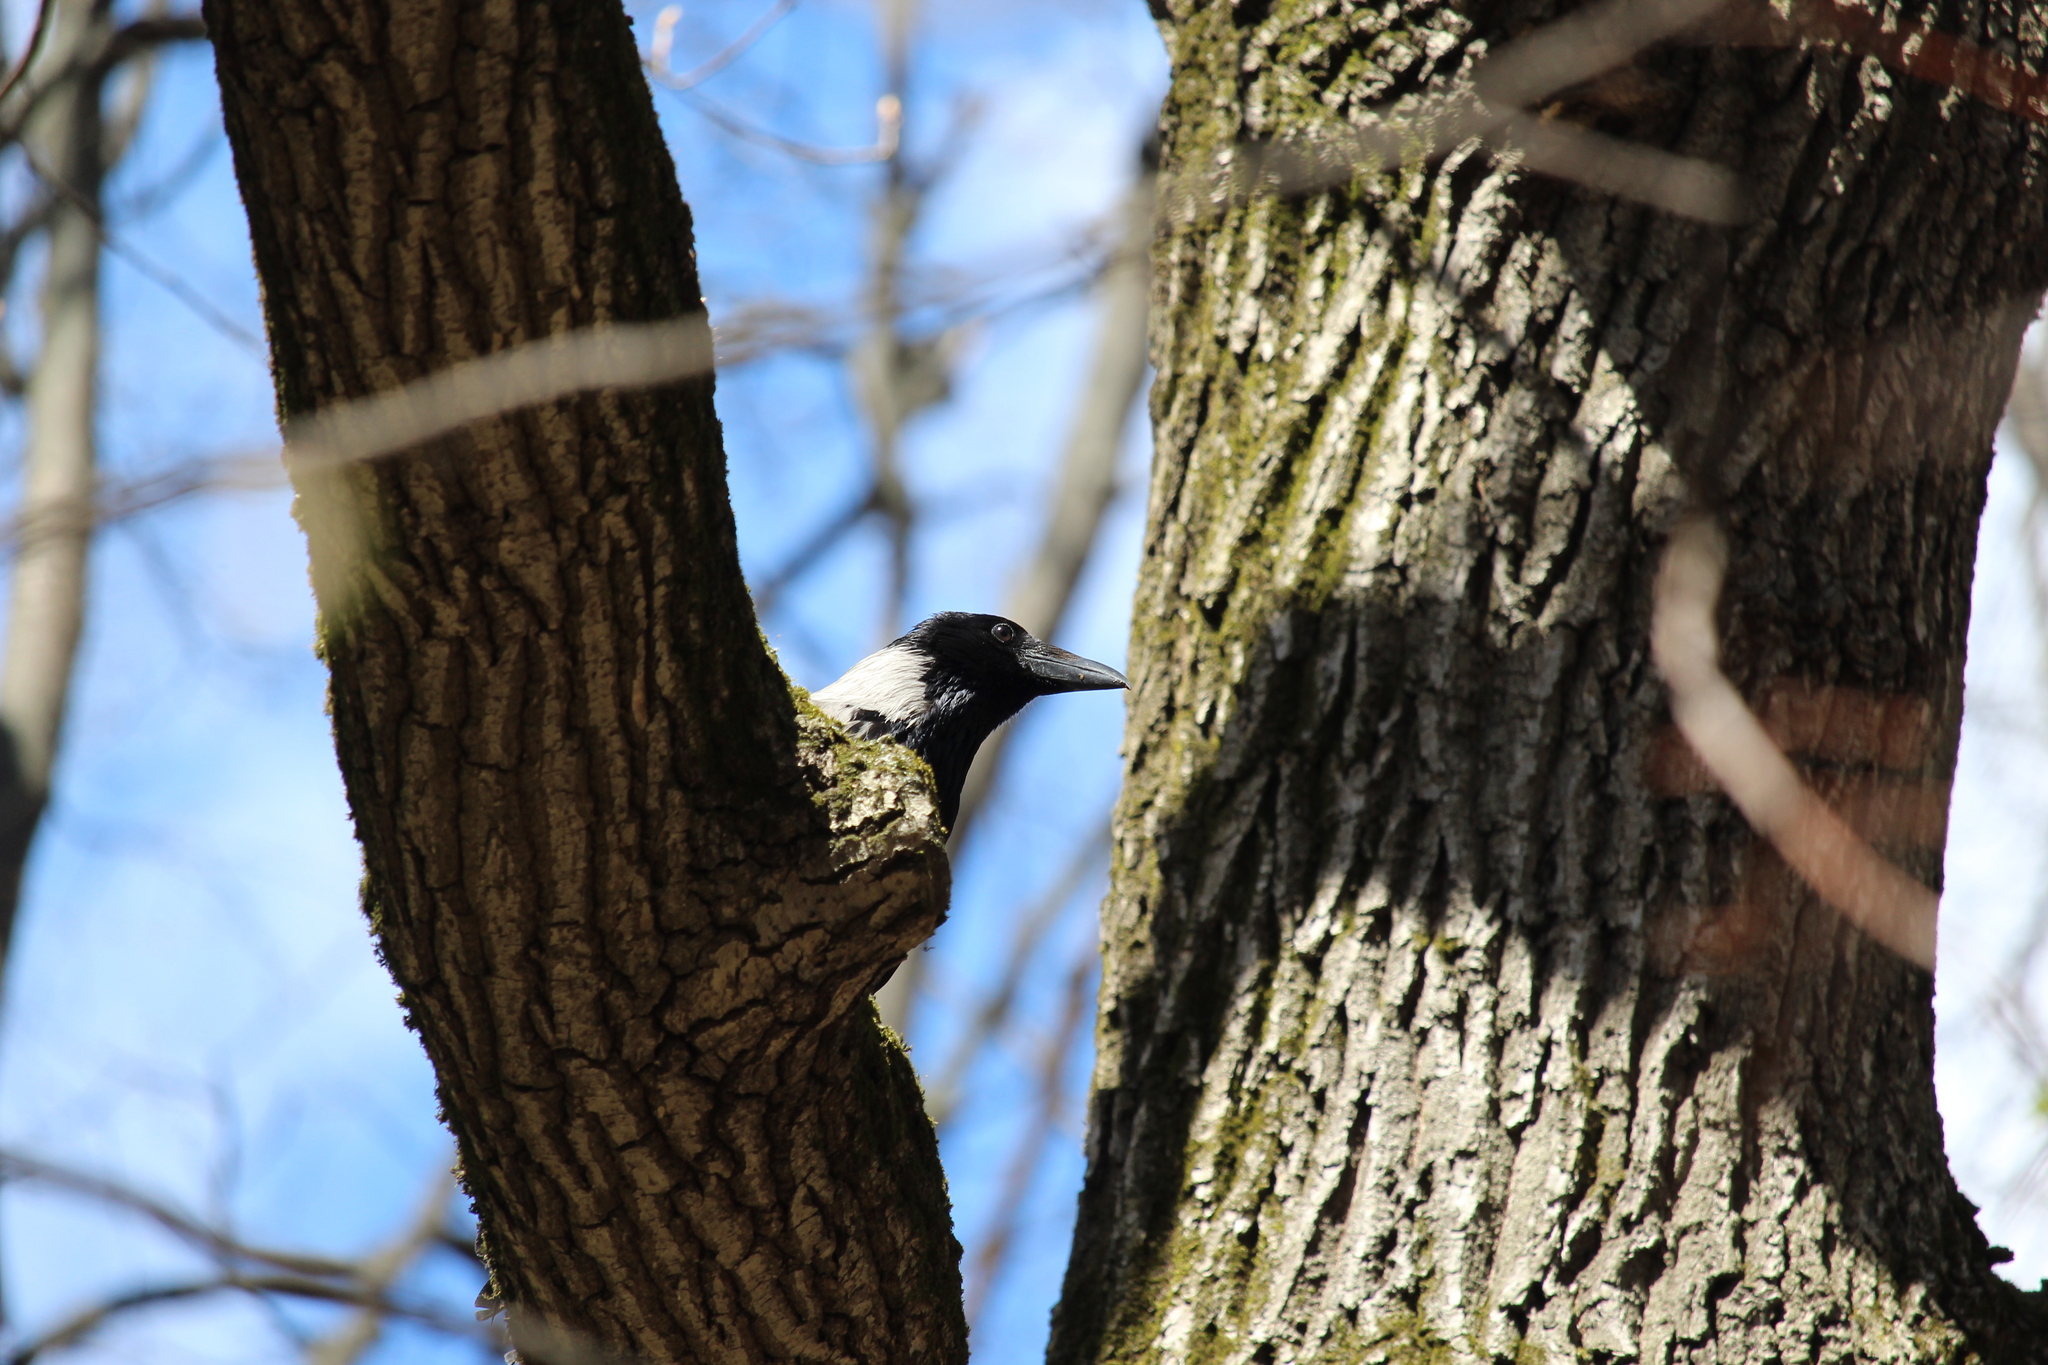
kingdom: Animalia
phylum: Chordata
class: Aves
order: Passeriformes
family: Corvidae
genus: Corvus
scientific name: Corvus cornix
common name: Hooded crow
